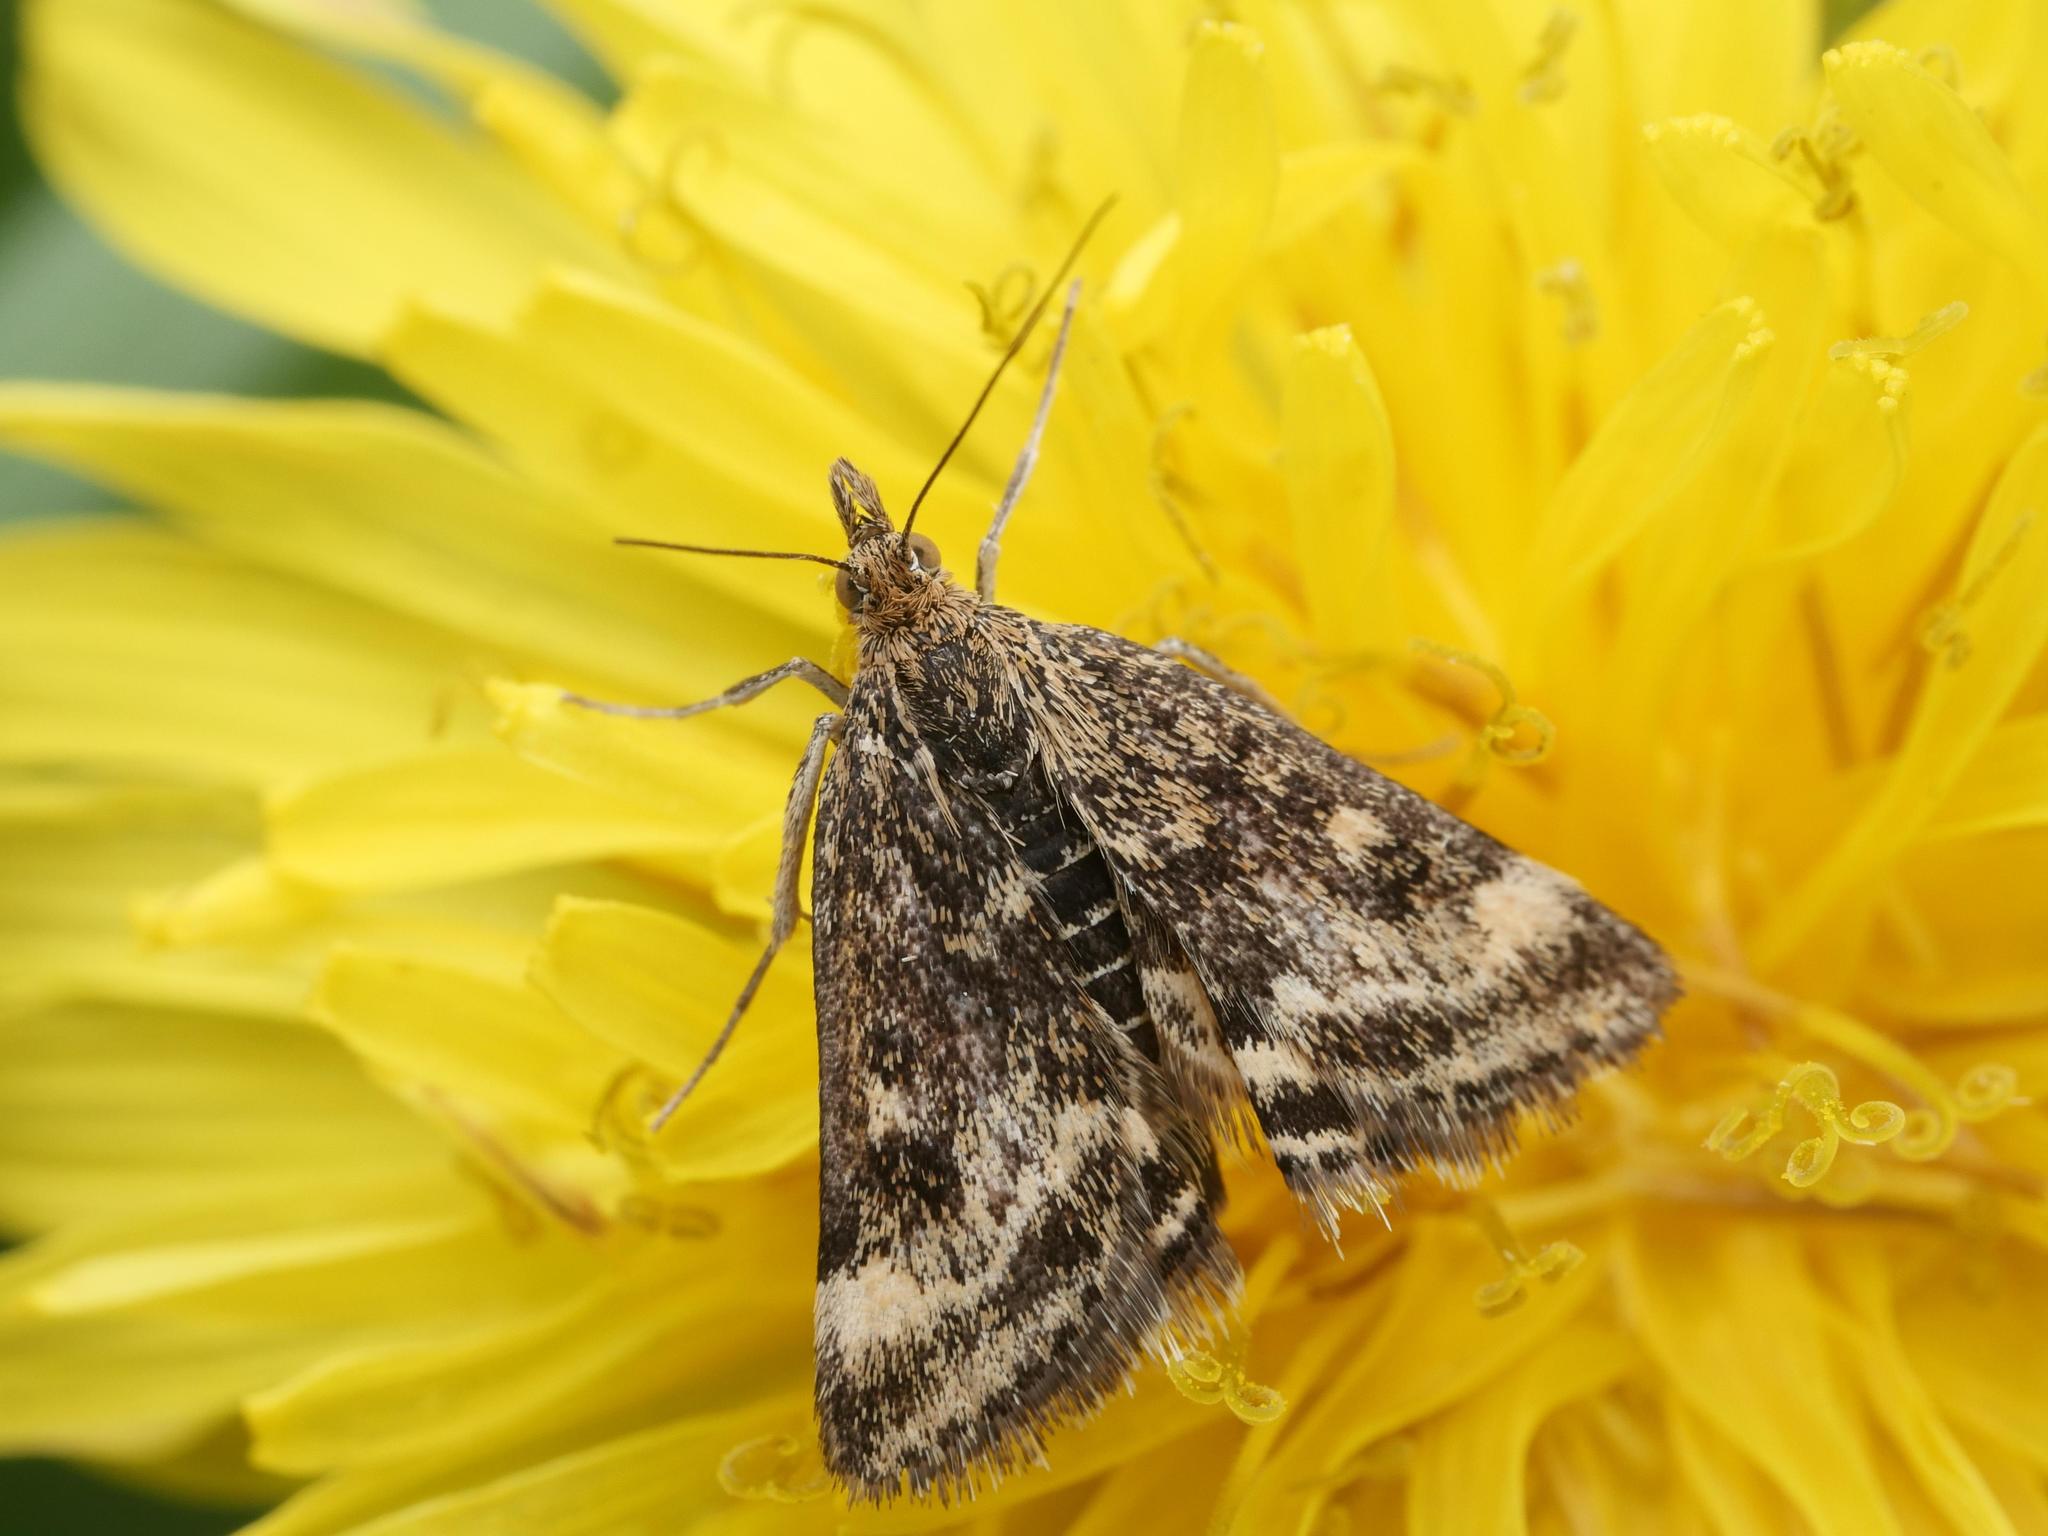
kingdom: Animalia
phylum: Arthropoda
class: Insecta
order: Lepidoptera
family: Crambidae
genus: Pyrausta
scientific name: Pyrausta despicata
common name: Straw-barred pearl
